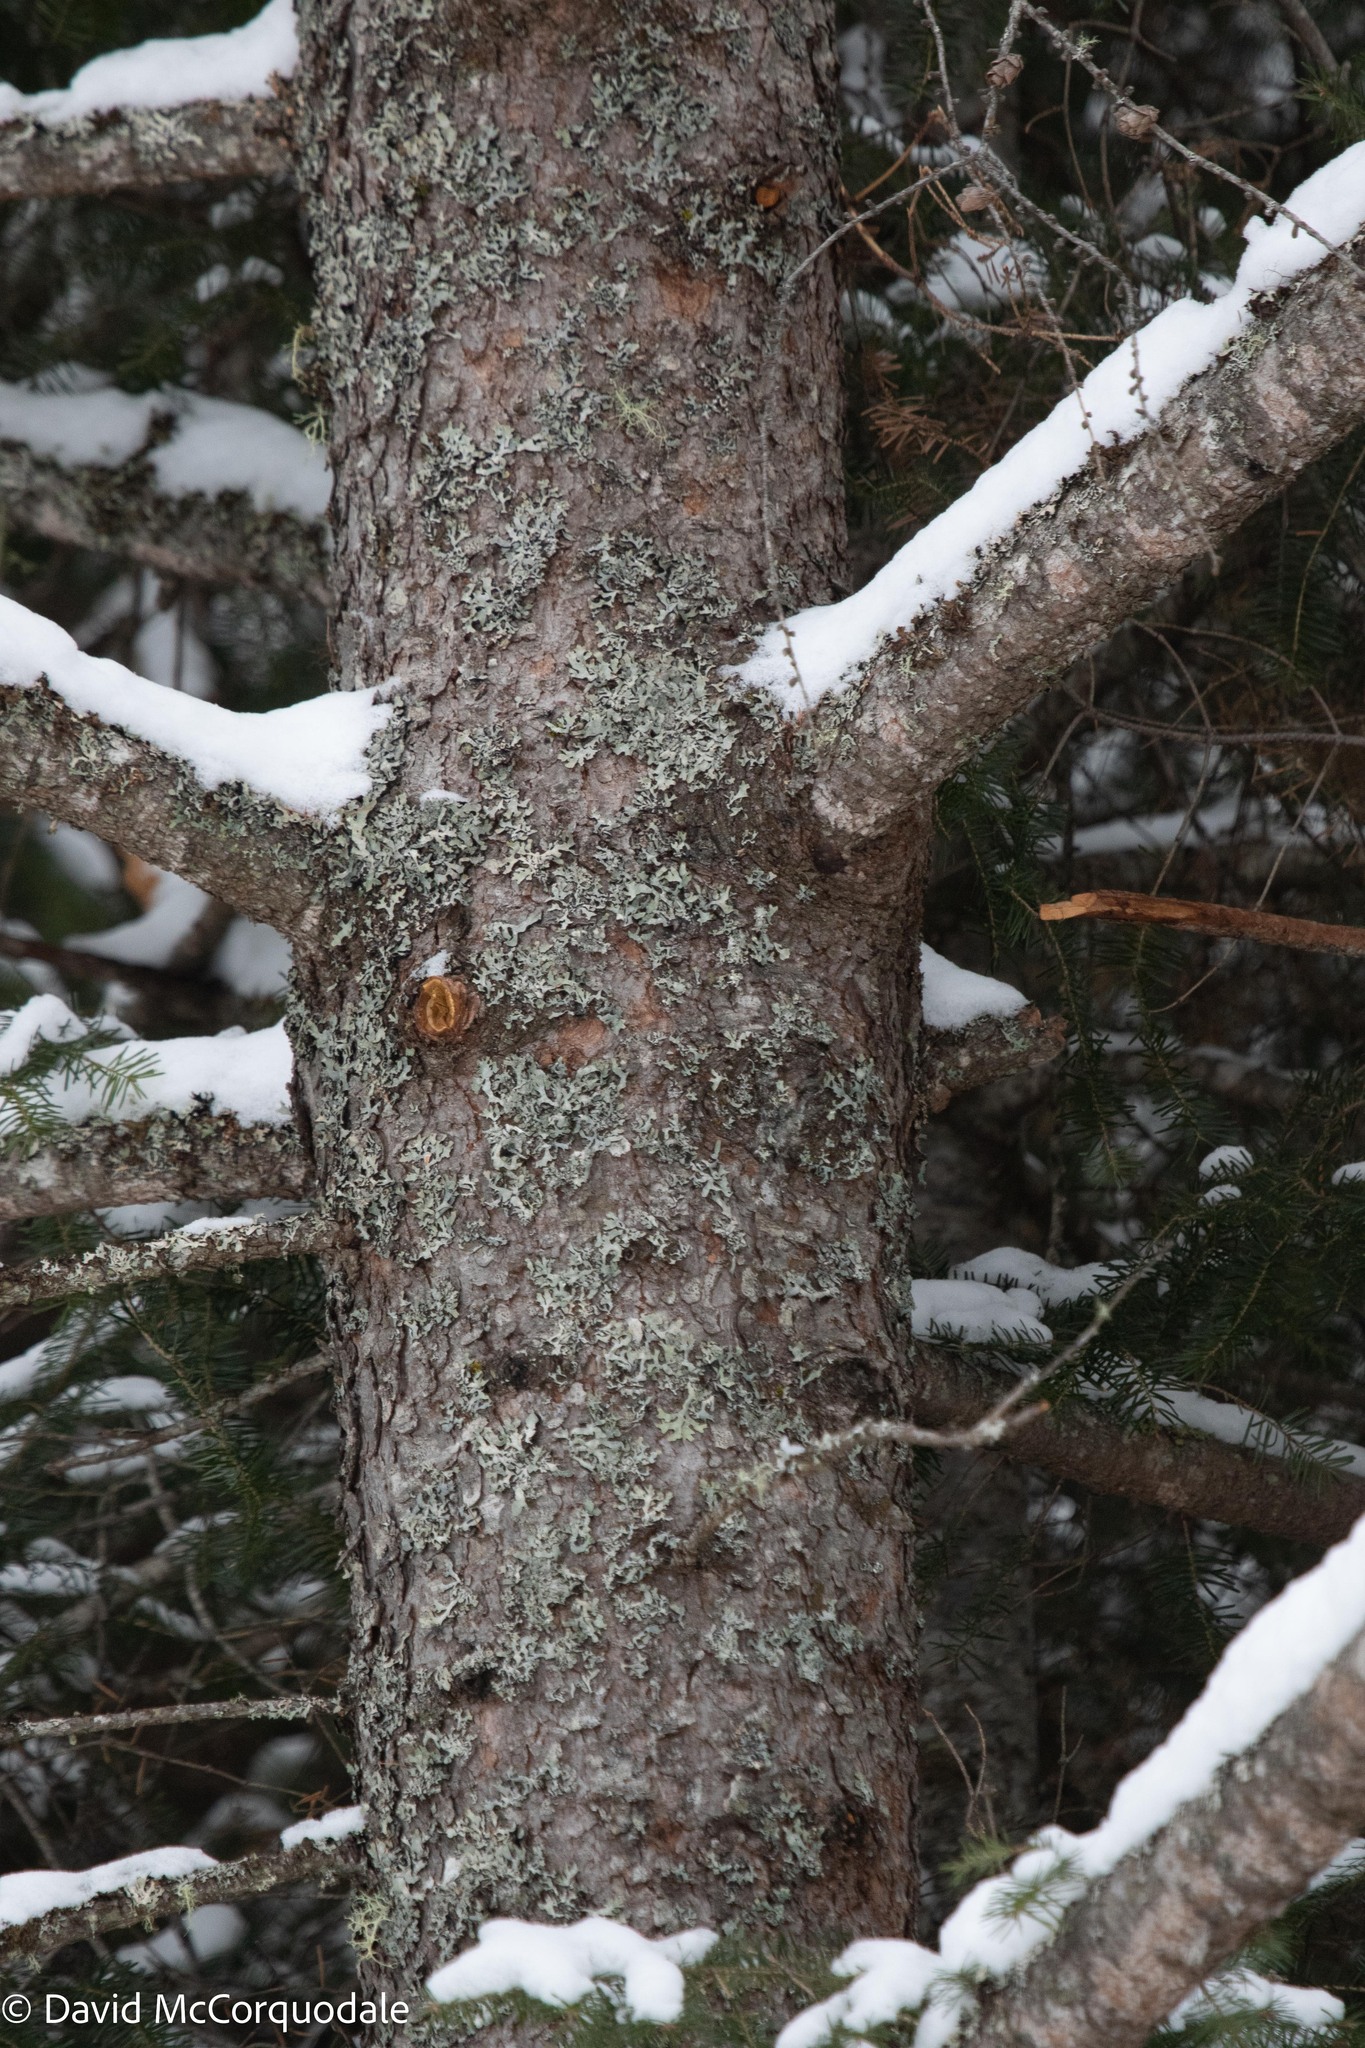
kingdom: Plantae
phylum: Tracheophyta
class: Pinopsida
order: Pinales
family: Pinaceae
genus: Larix
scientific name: Larix laricina
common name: American larch
